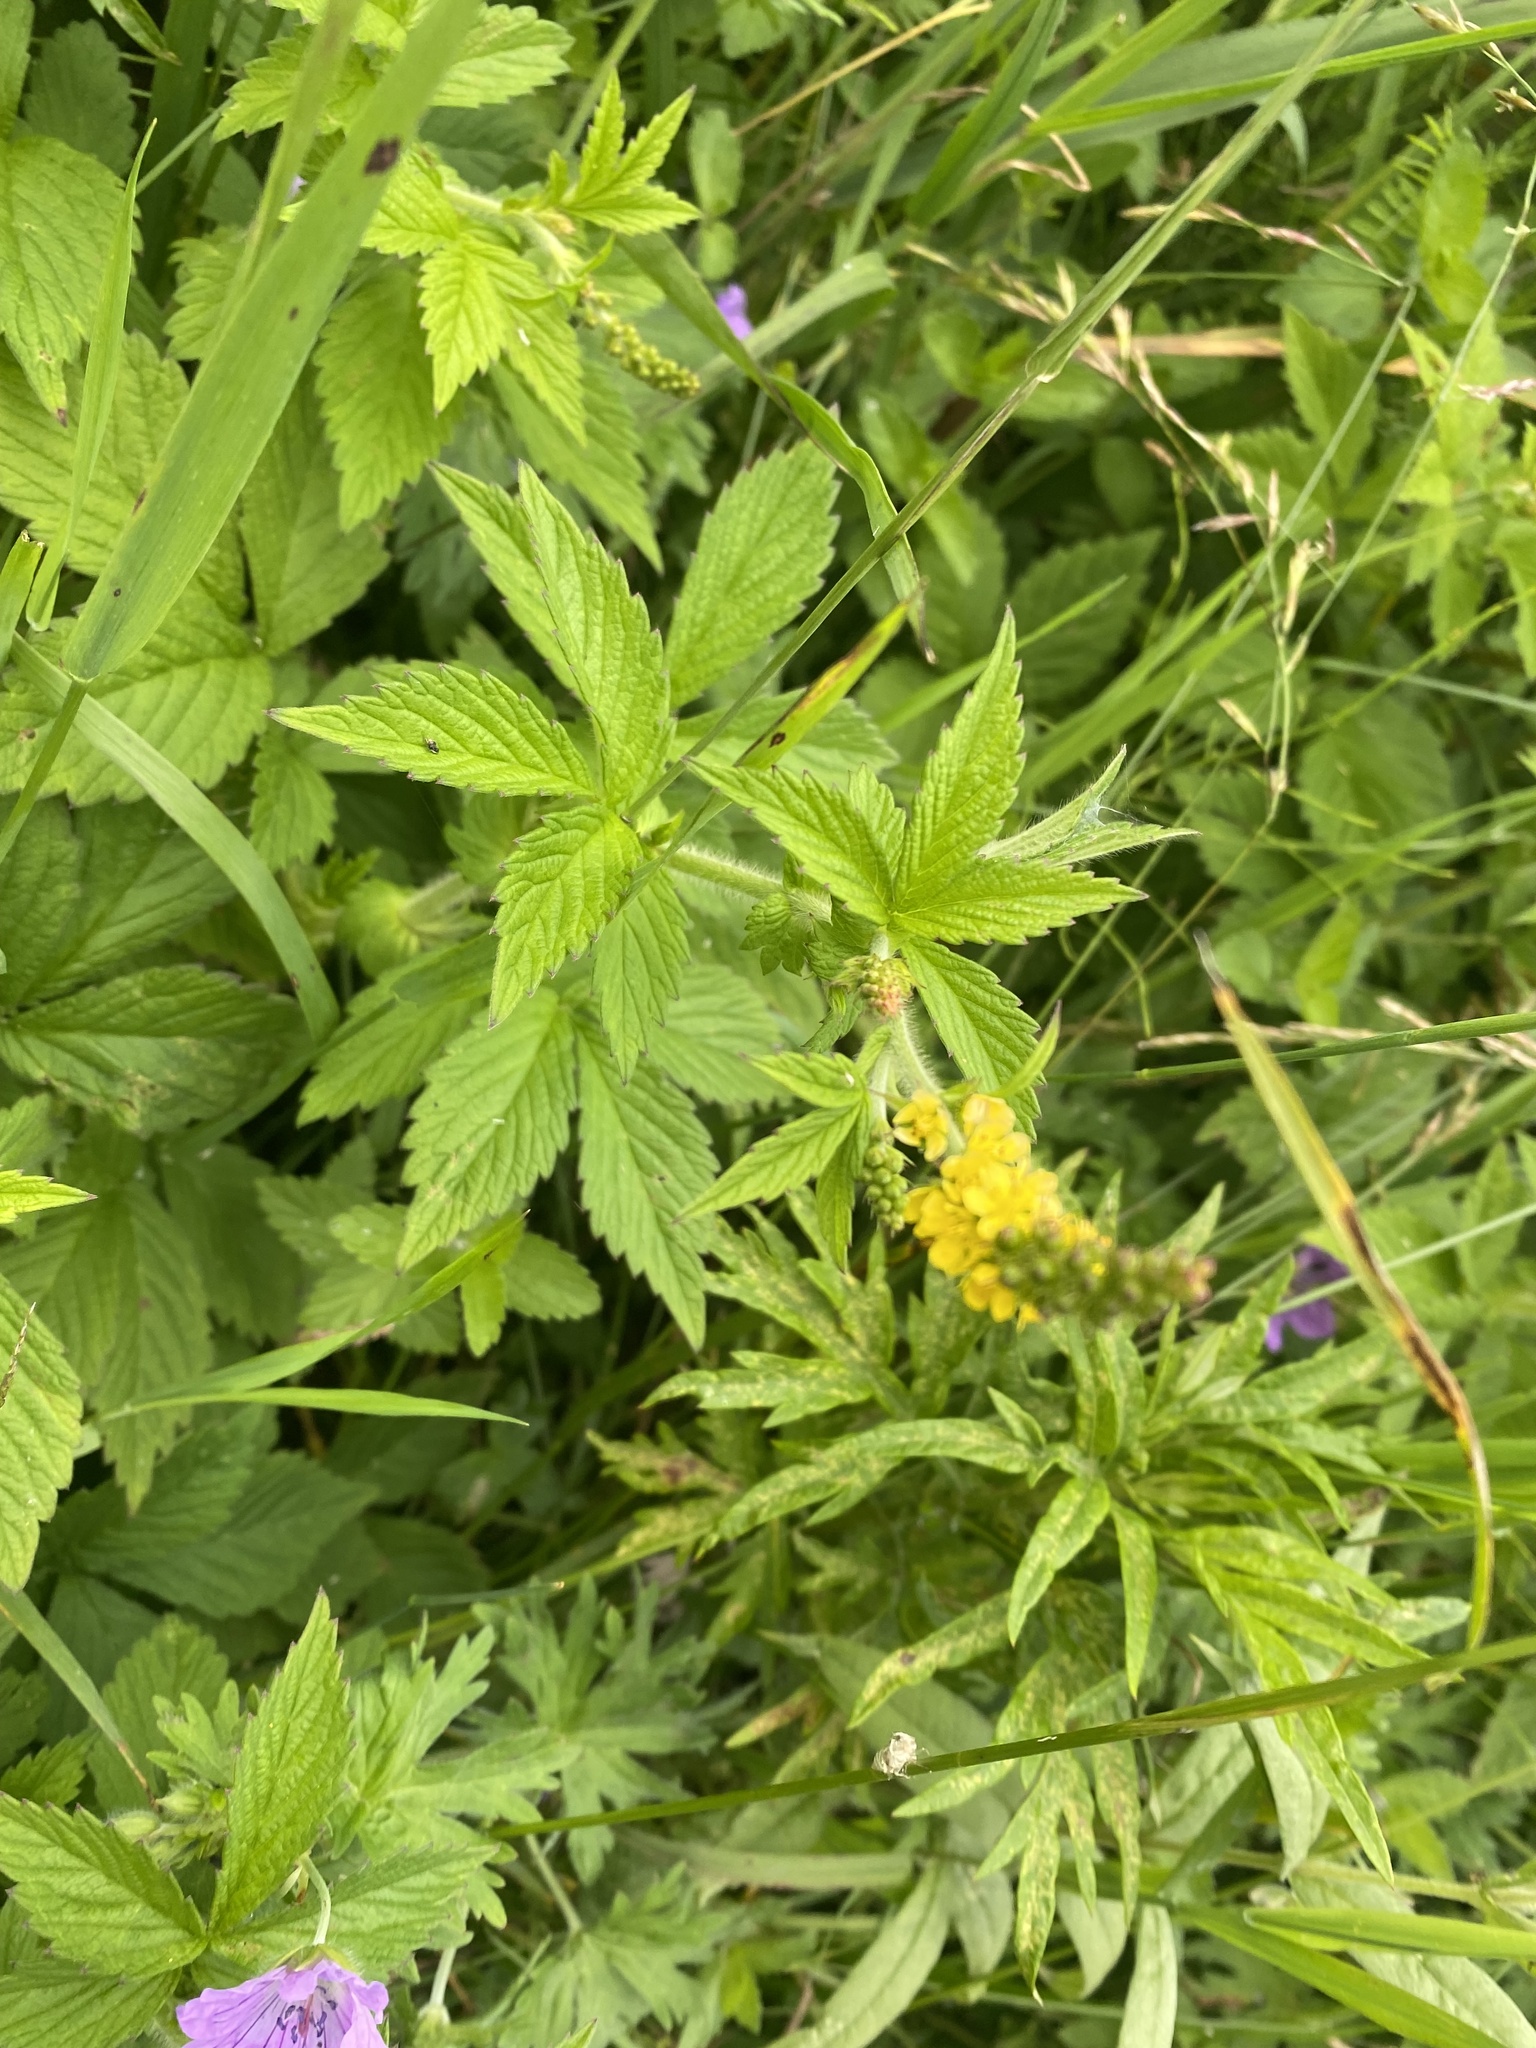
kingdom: Plantae
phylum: Tracheophyta
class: Magnoliopsida
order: Rosales
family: Rosaceae
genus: Agrimonia
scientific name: Agrimonia eupatoria
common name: Agrimony
